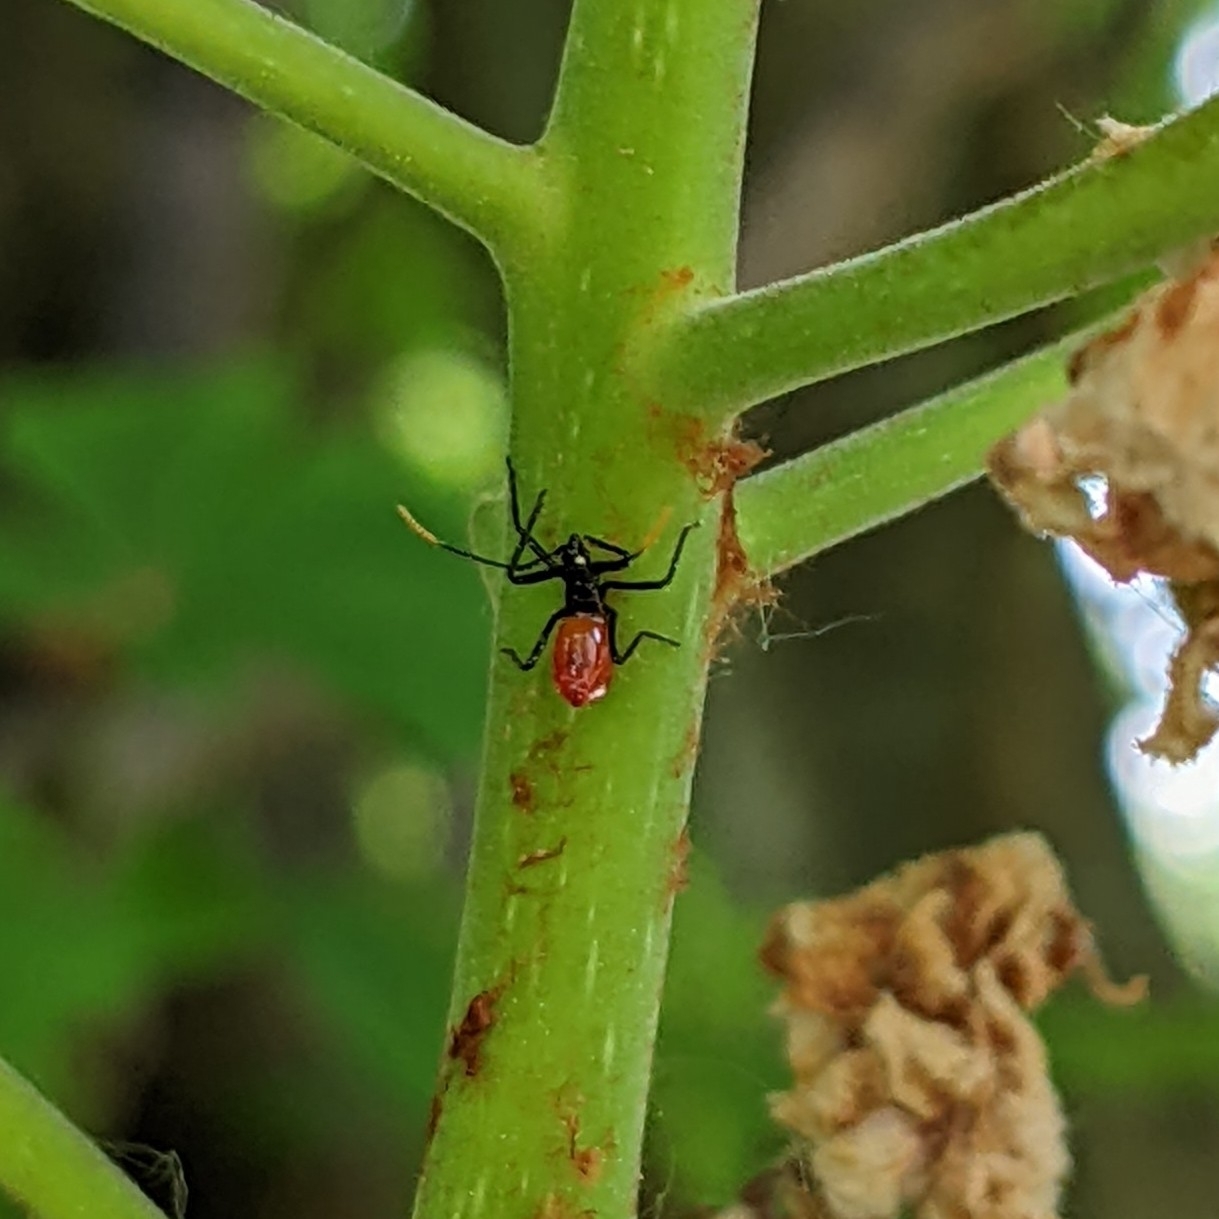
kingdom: Animalia
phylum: Arthropoda
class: Insecta
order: Hemiptera
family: Reduviidae
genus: Arilus
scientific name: Arilus cristatus
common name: North american wheel bug
